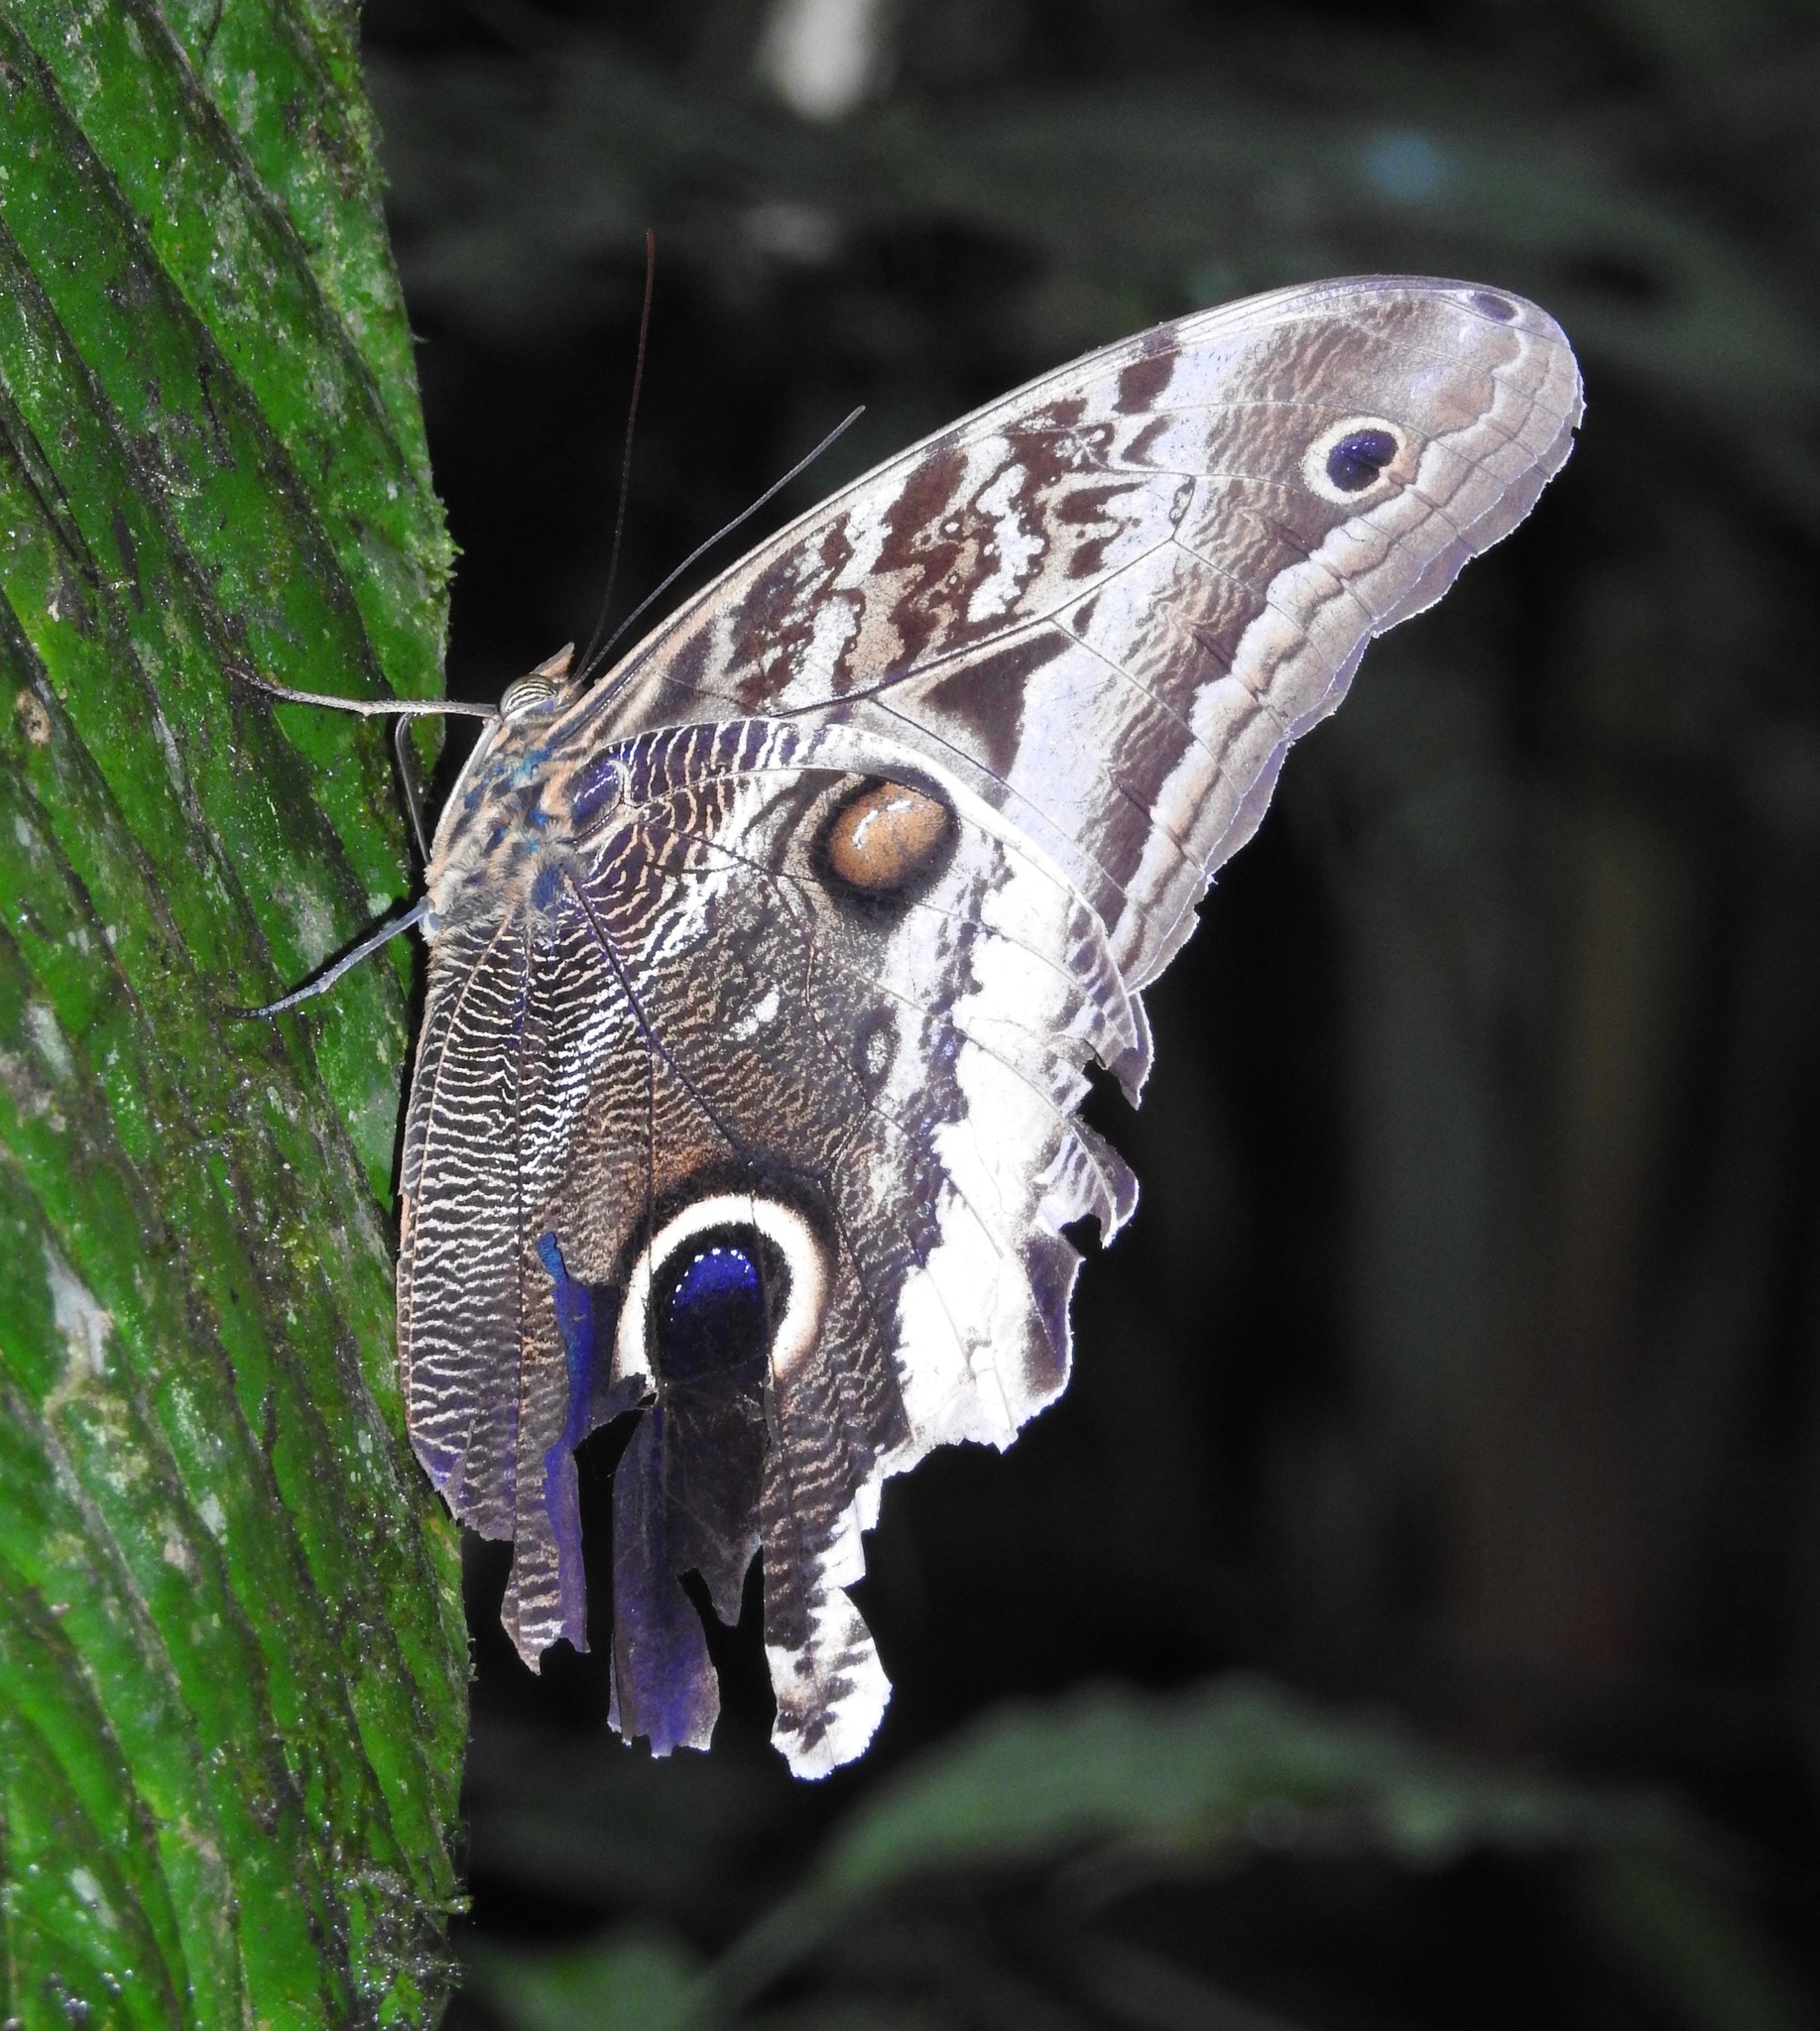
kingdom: Animalia
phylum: Arthropoda
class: Insecta
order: Lepidoptera
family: Nymphalidae
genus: Caligo
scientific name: Caligo atreus
